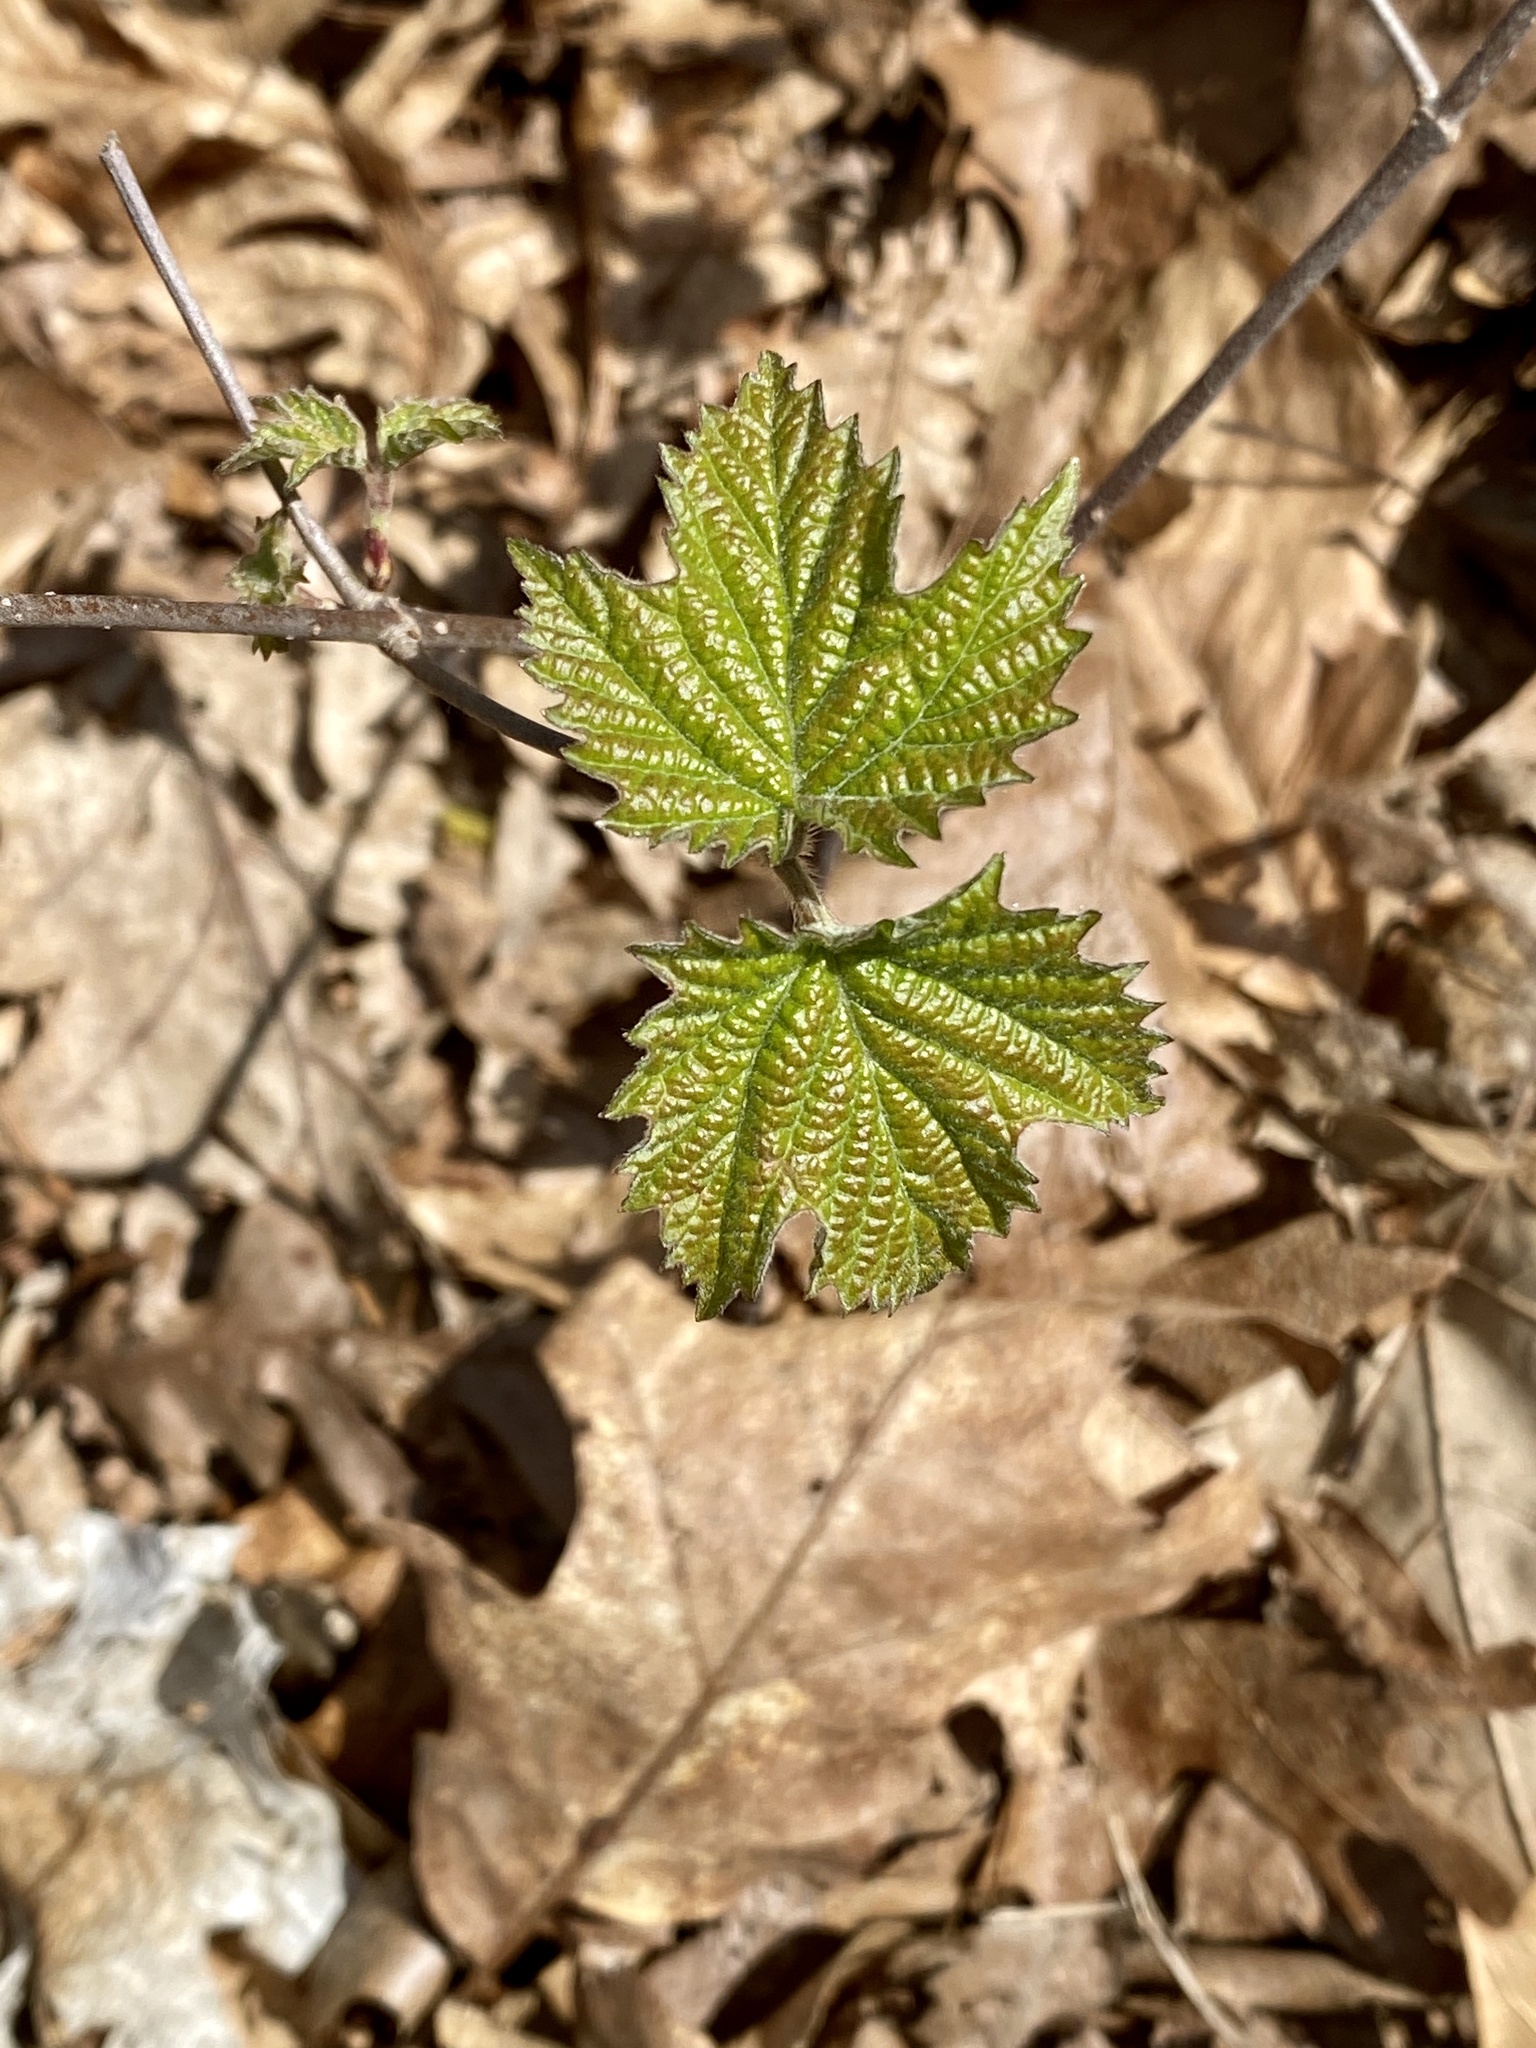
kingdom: Plantae
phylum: Tracheophyta
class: Magnoliopsida
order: Dipsacales
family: Viburnaceae
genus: Viburnum
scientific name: Viburnum acerifolium
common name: Dockmackie
